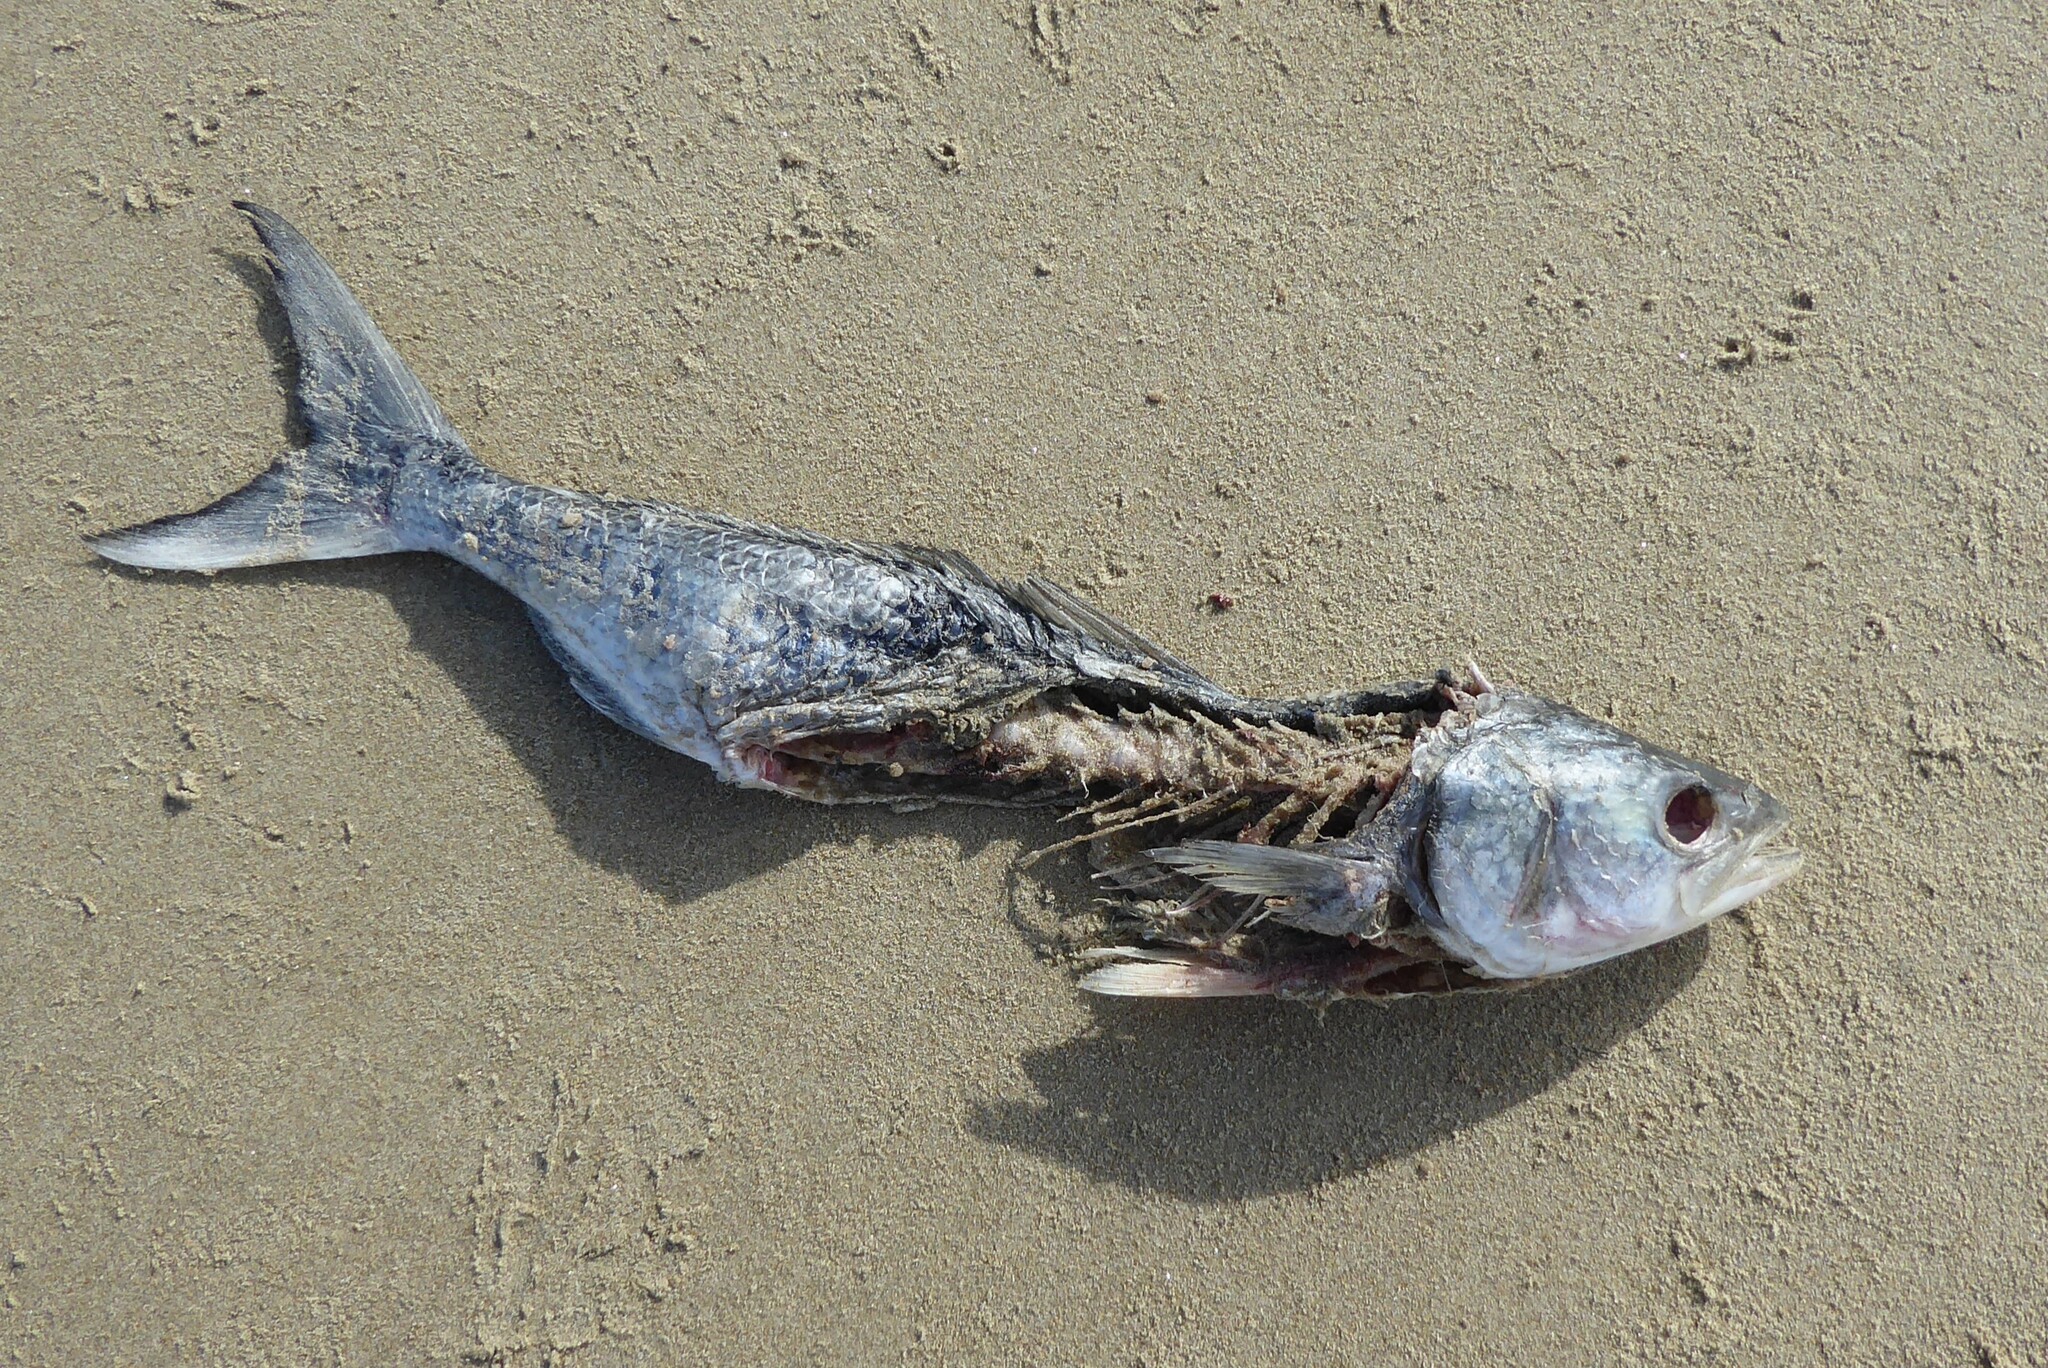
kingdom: Animalia
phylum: Chordata
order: Perciformes
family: Arripidae
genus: Arripis
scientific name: Arripis trutta
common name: Kahawai
